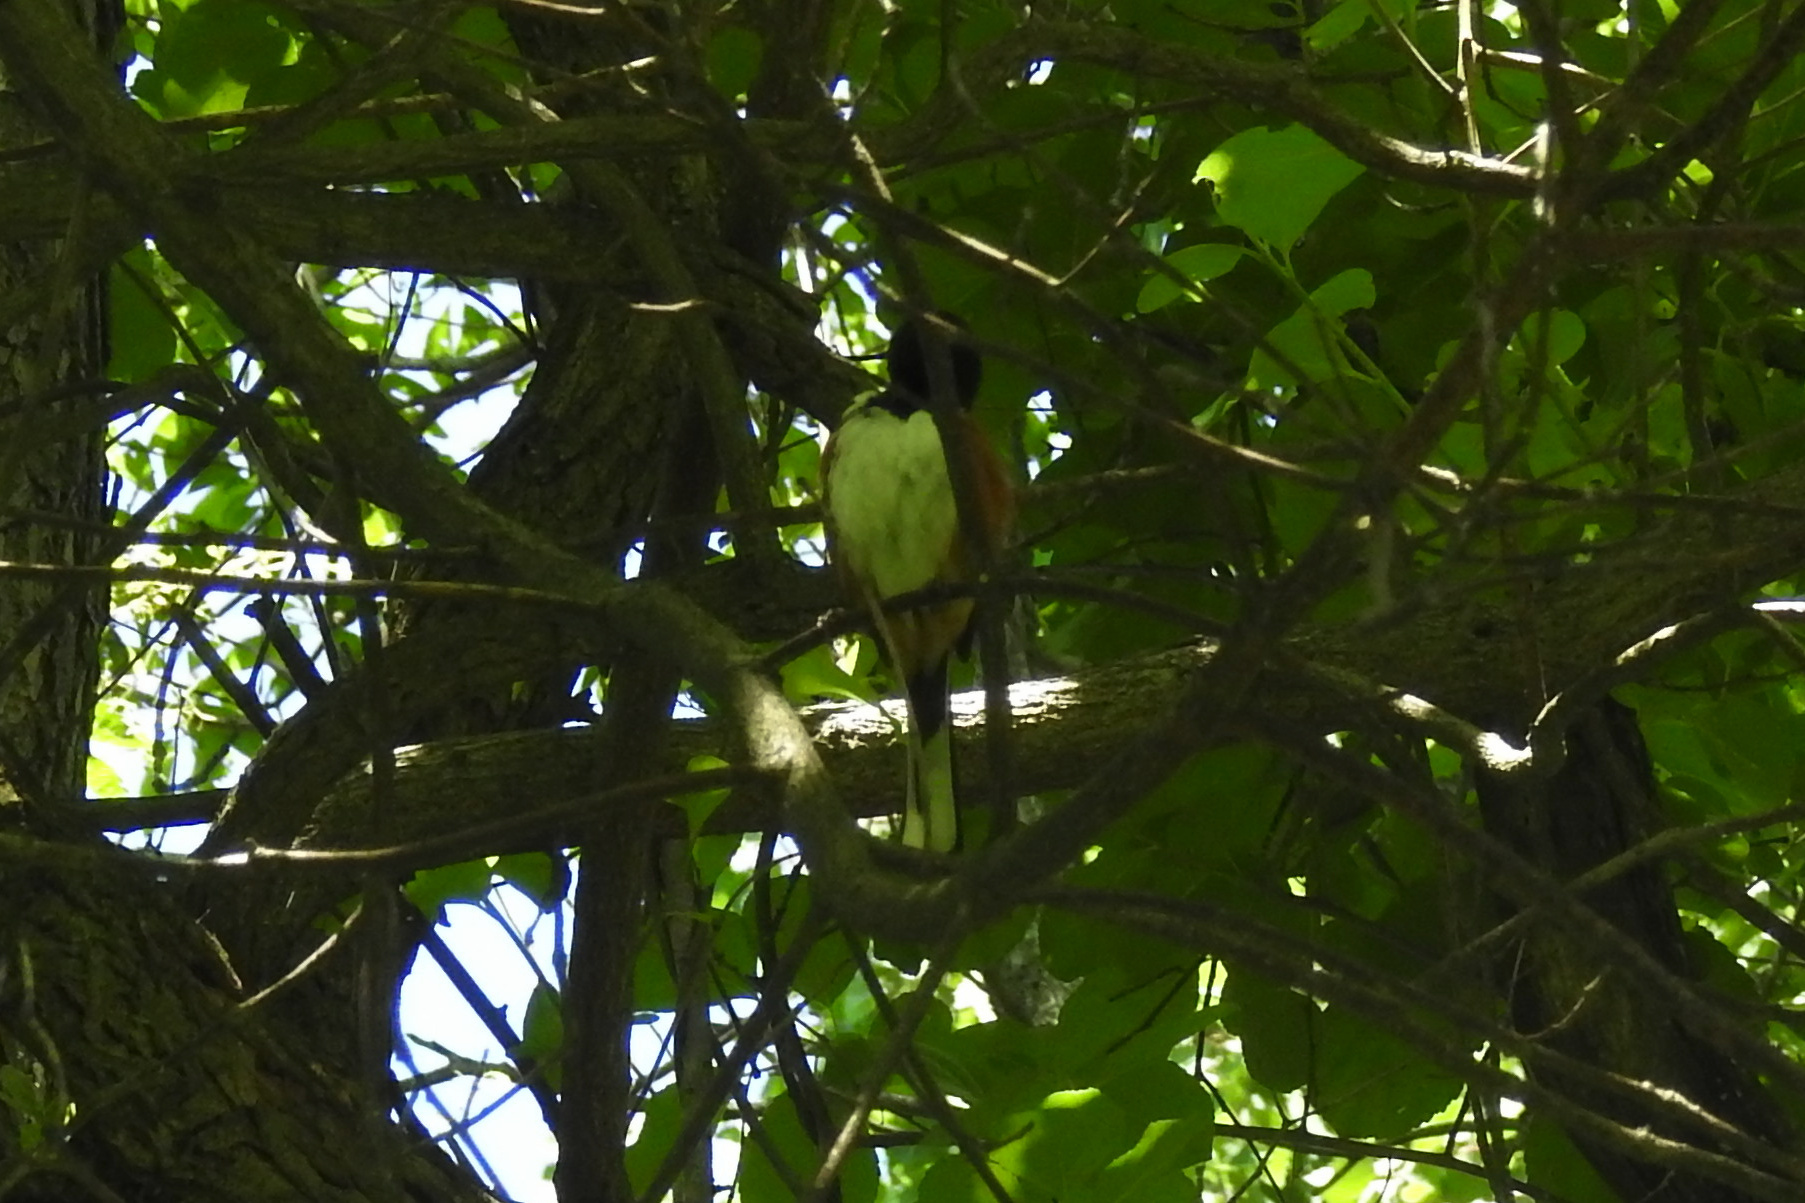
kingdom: Animalia
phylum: Chordata
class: Aves
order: Passeriformes
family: Passerellidae
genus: Pipilo
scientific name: Pipilo erythrophthalmus
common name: Eastern towhee
